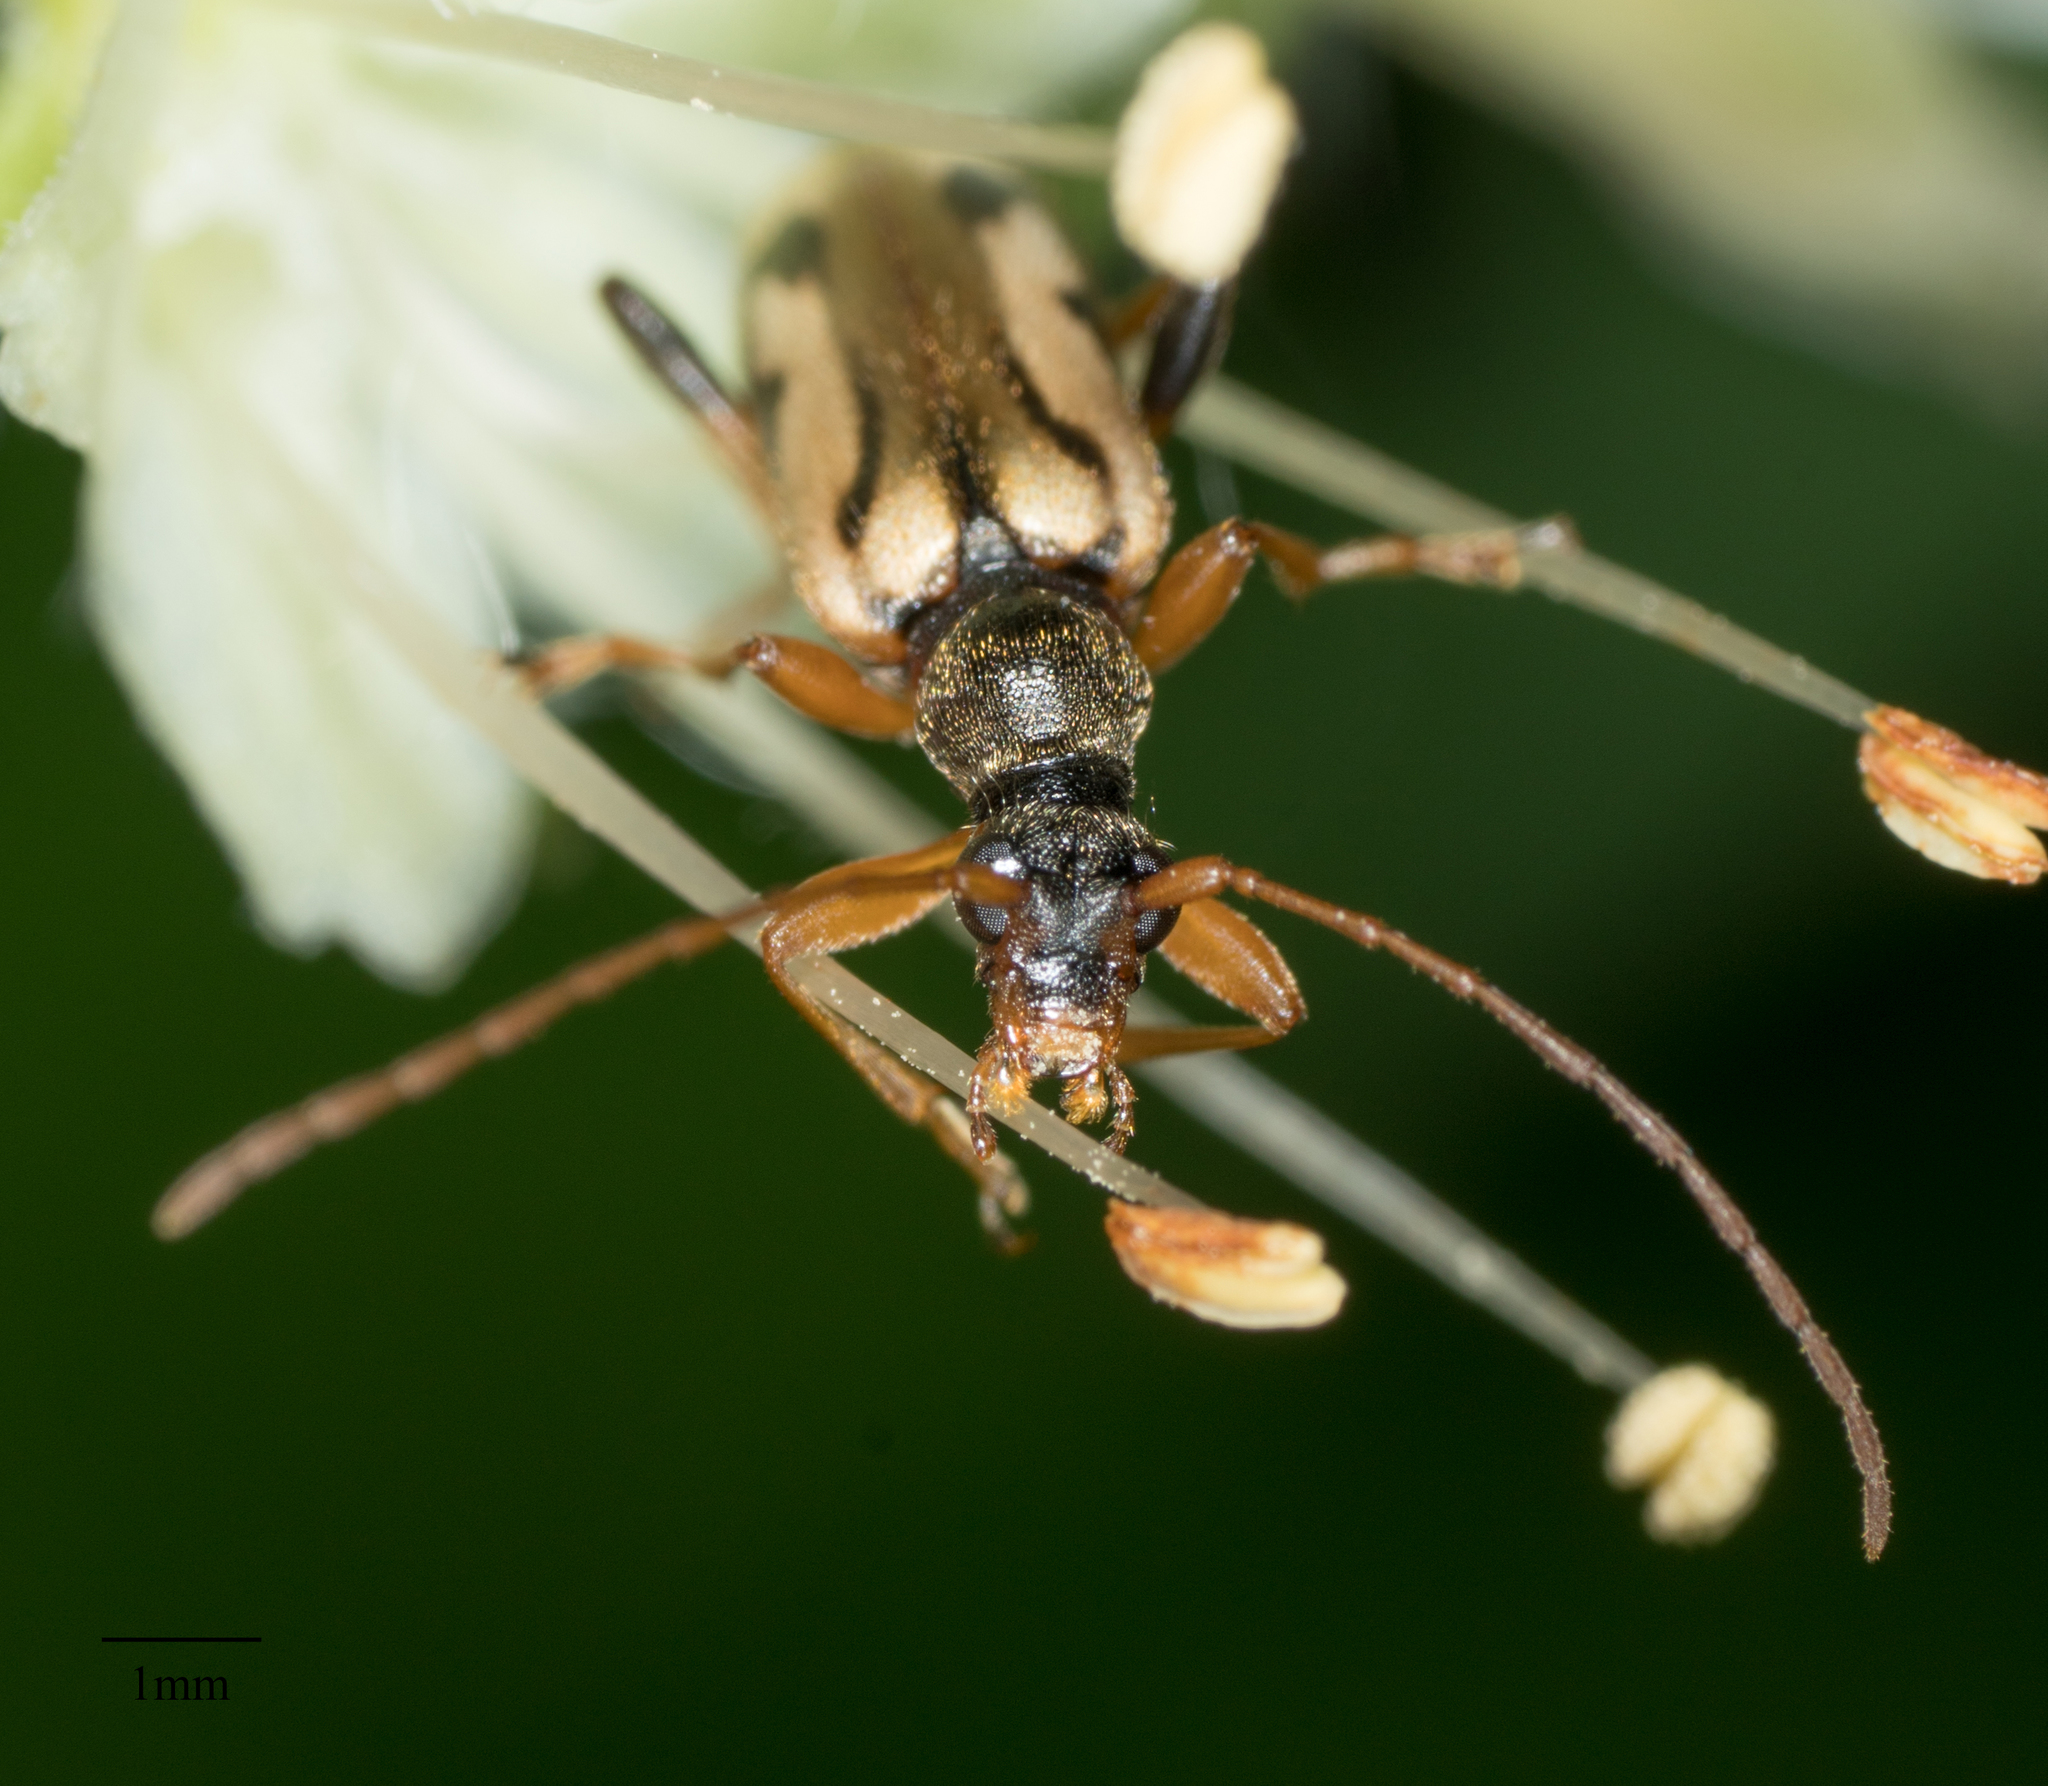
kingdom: Animalia
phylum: Arthropoda
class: Insecta
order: Coleoptera
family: Cerambycidae
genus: Pidonia
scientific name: Pidonia scripta
